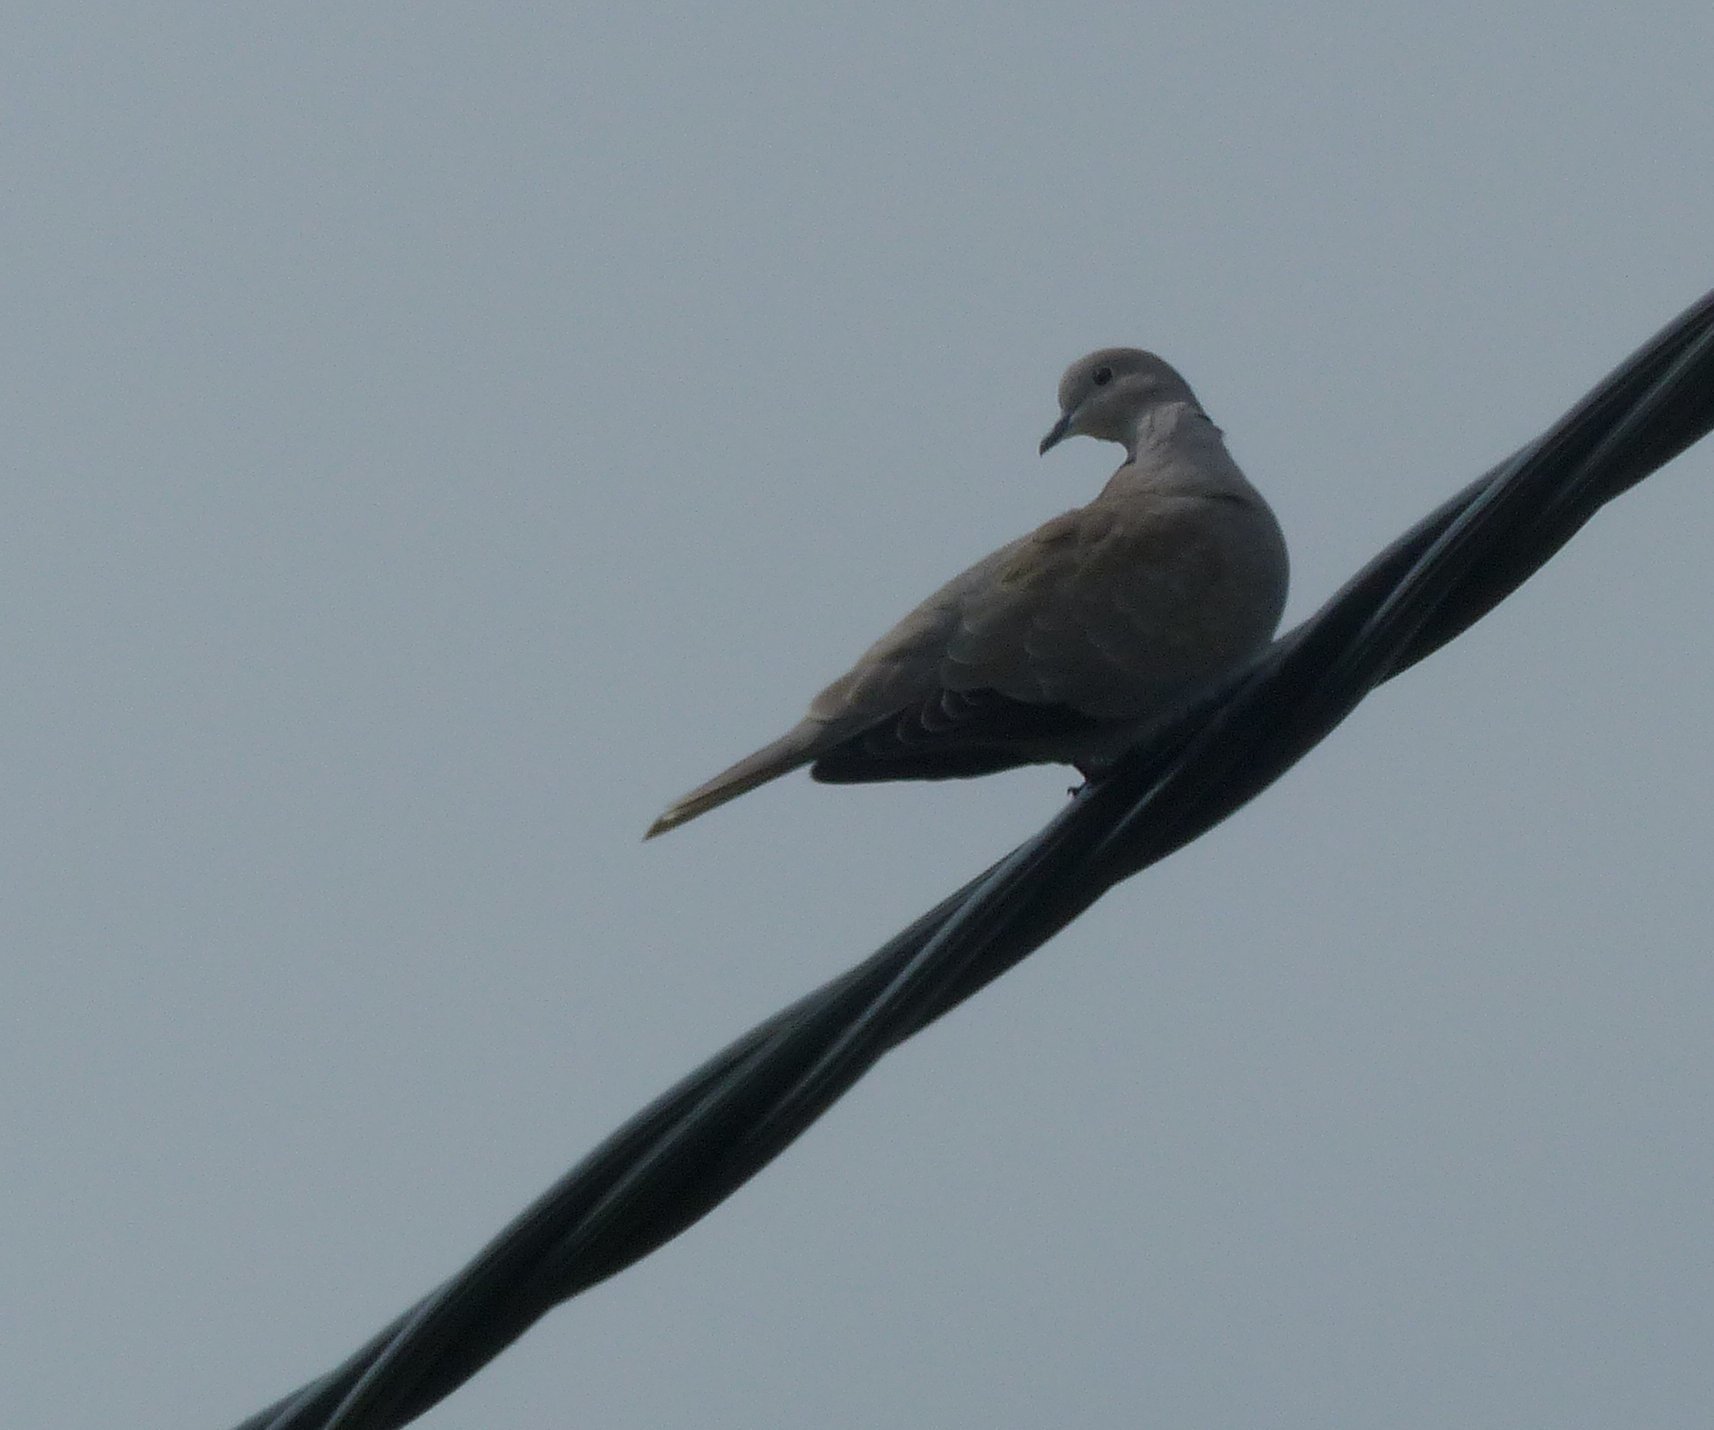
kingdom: Animalia
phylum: Chordata
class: Aves
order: Columbiformes
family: Columbidae
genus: Streptopelia
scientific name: Streptopelia decaocto
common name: Eurasian collared dove
